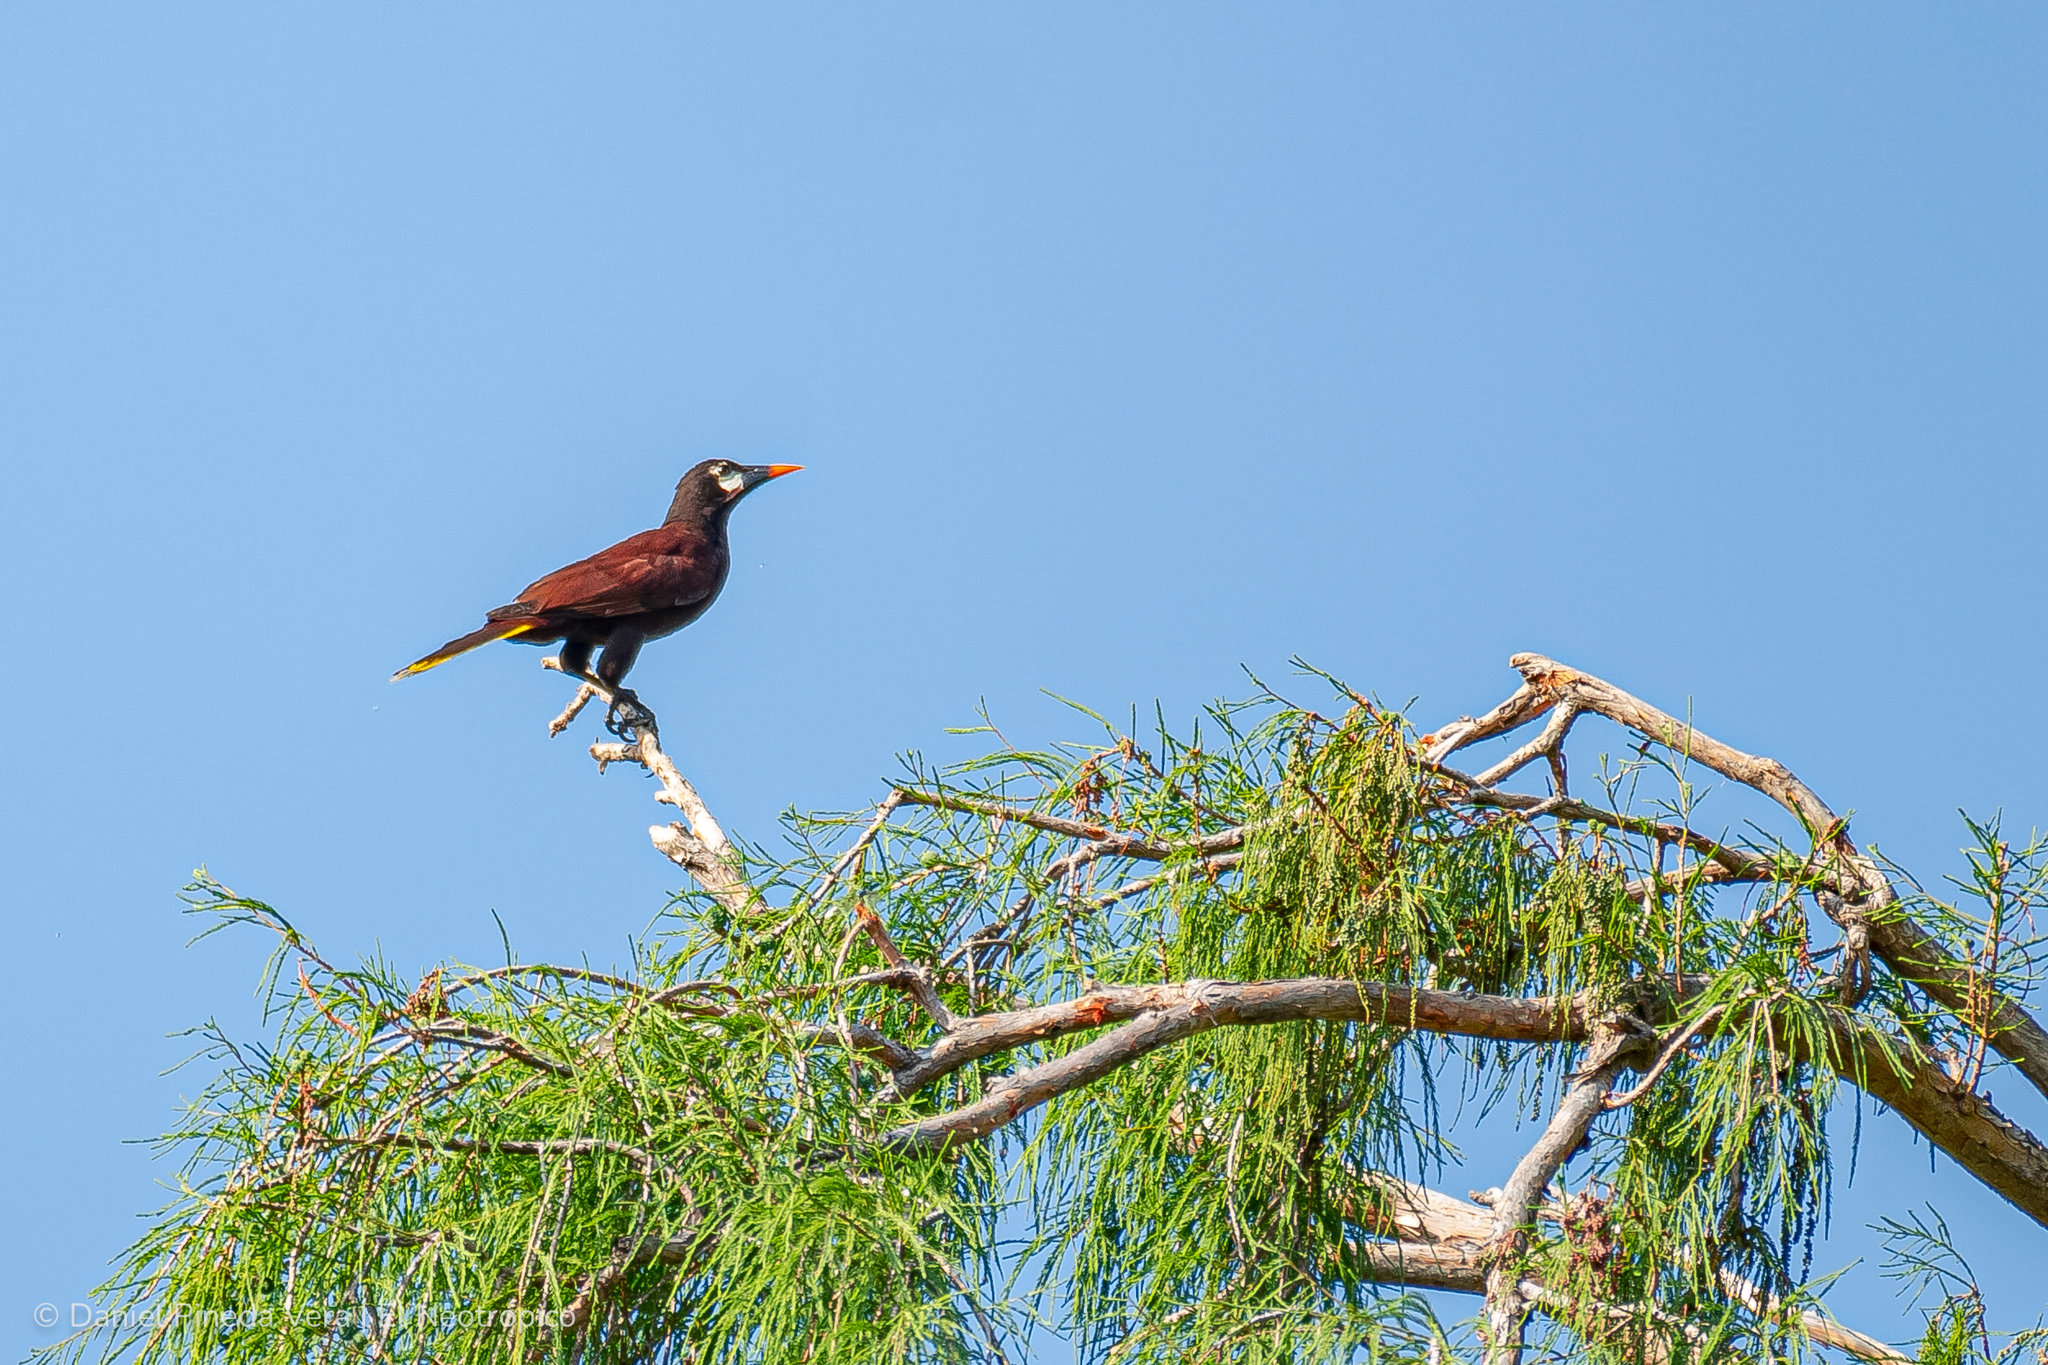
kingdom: Animalia
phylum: Chordata
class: Aves
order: Passeriformes
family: Icteridae
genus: Psarocolius
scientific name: Psarocolius montezuma
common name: Montezuma oropendola
